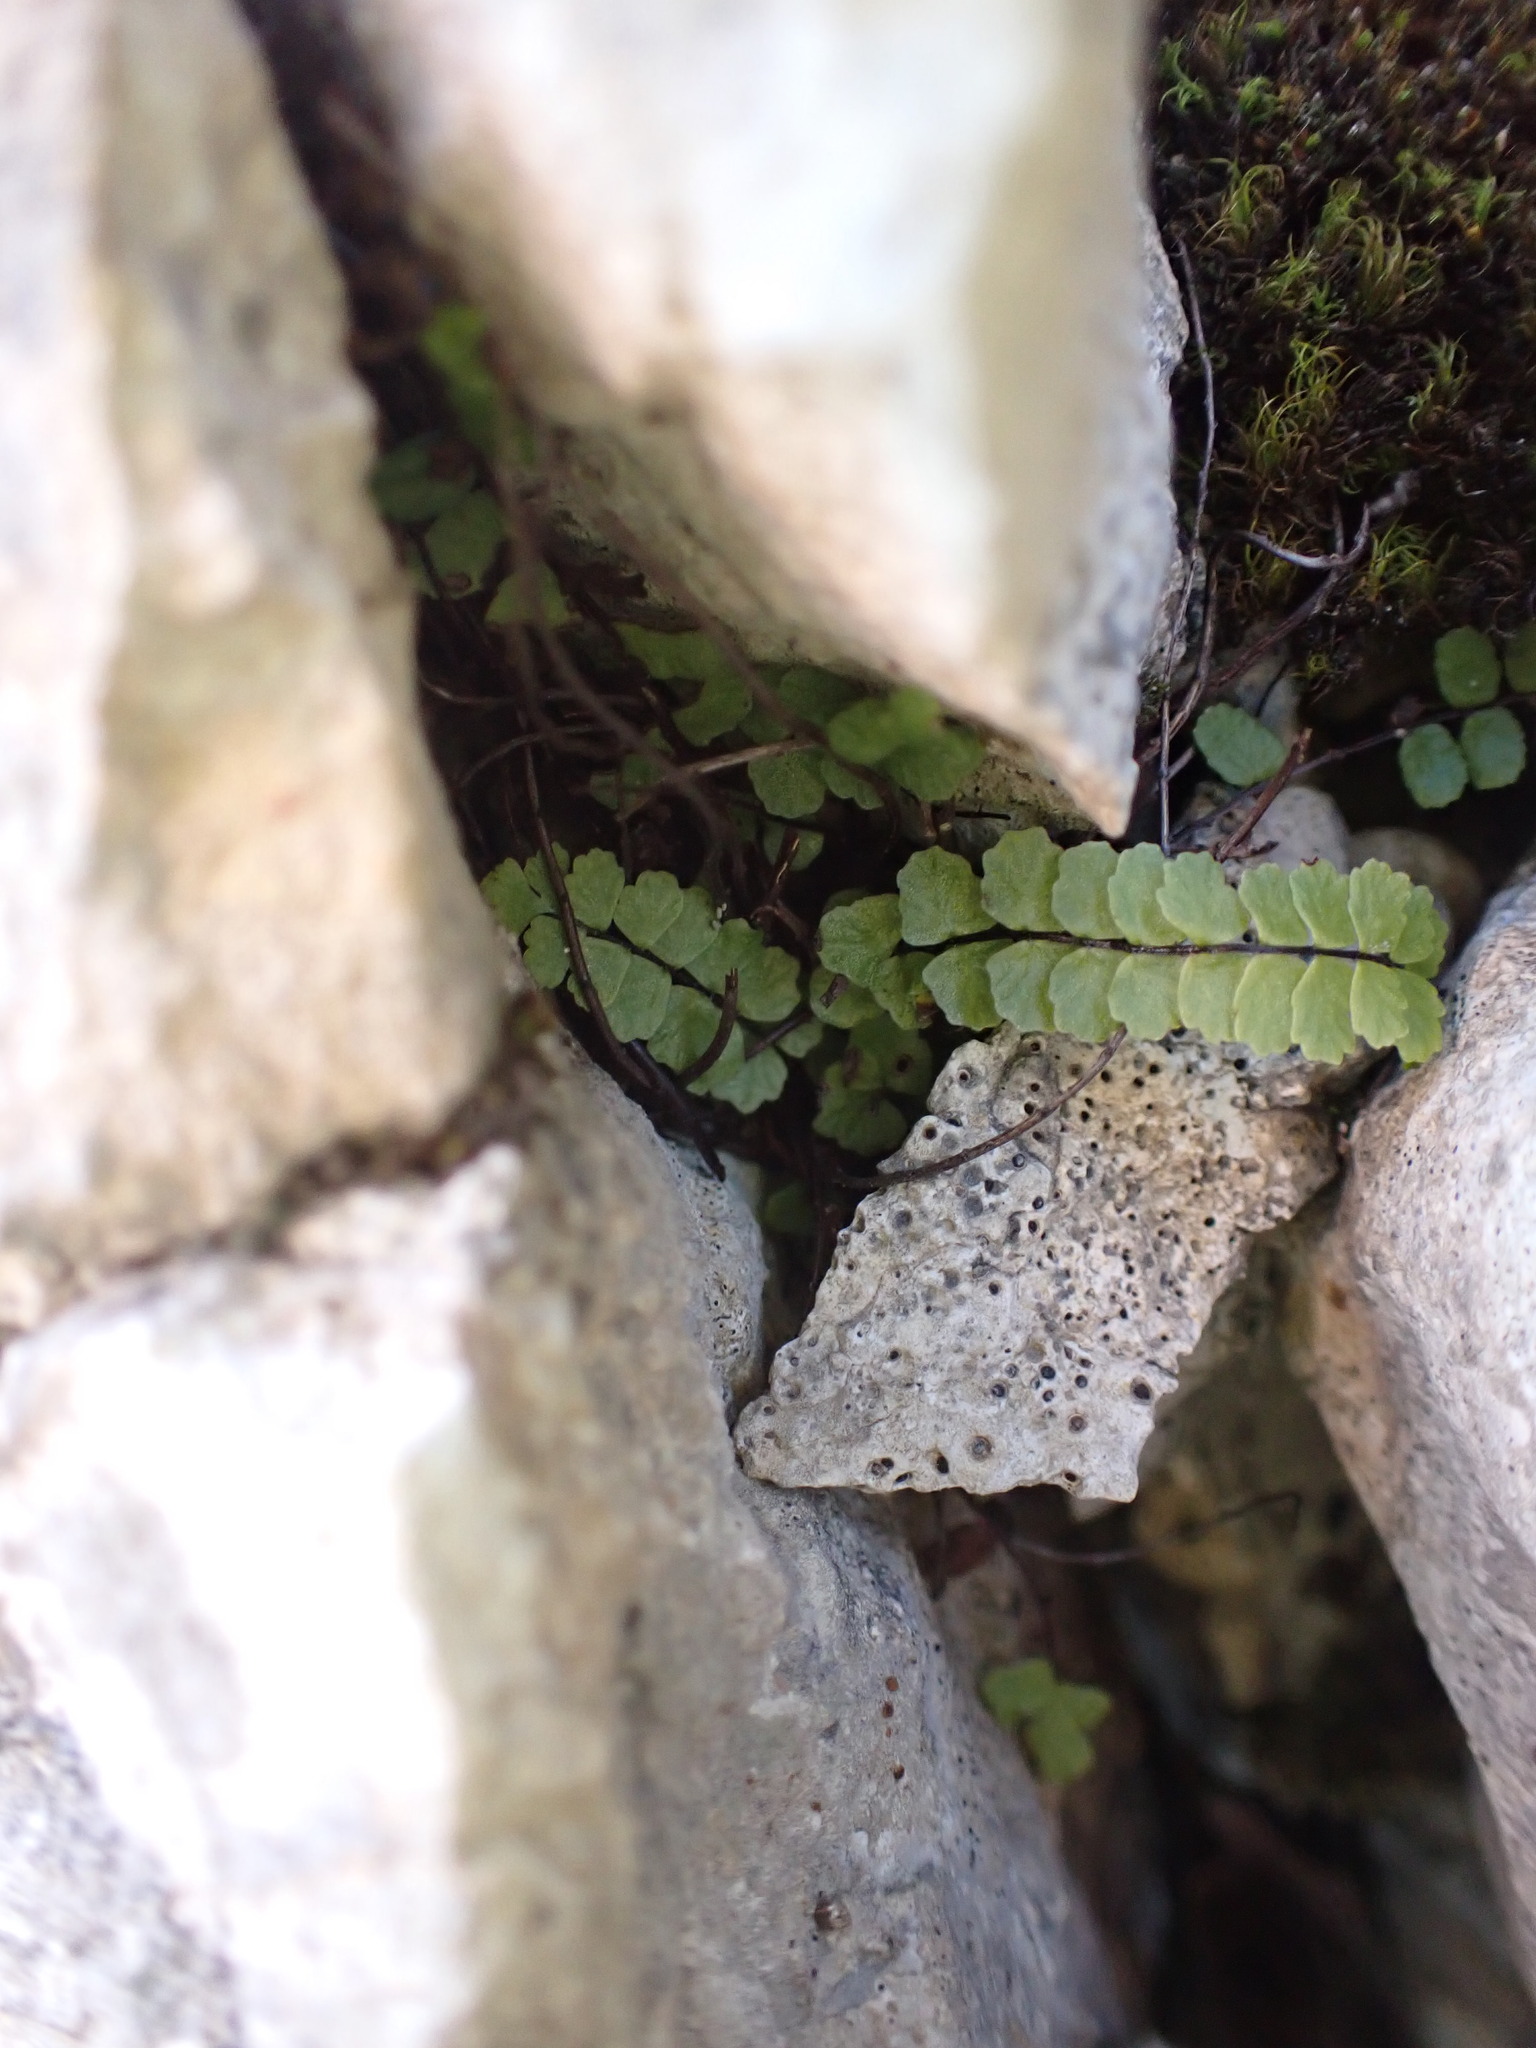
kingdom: Plantae
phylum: Tracheophyta
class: Polypodiopsida
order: Polypodiales
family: Aspleniaceae
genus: Asplenium
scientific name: Asplenium trichomanes
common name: Maidenhair spleenwort
